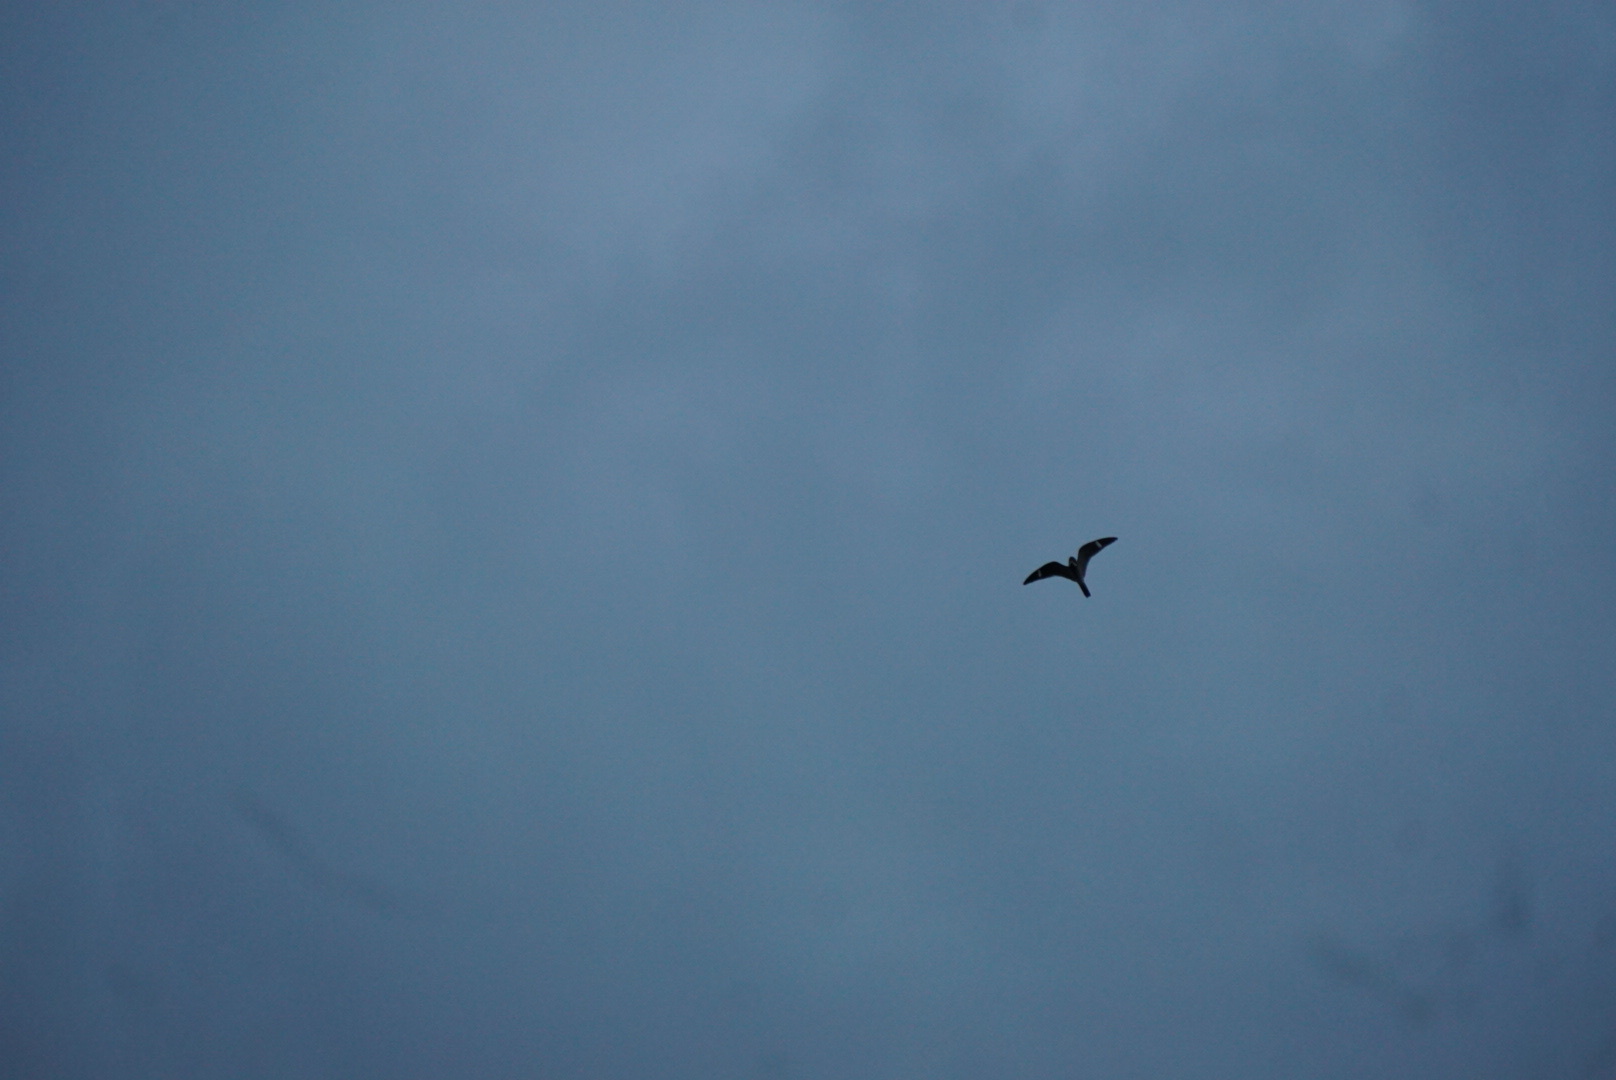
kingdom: Animalia
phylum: Chordata
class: Aves
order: Caprimulgiformes
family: Caprimulgidae
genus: Chordeiles
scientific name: Chordeiles minor
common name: Common nighthawk
